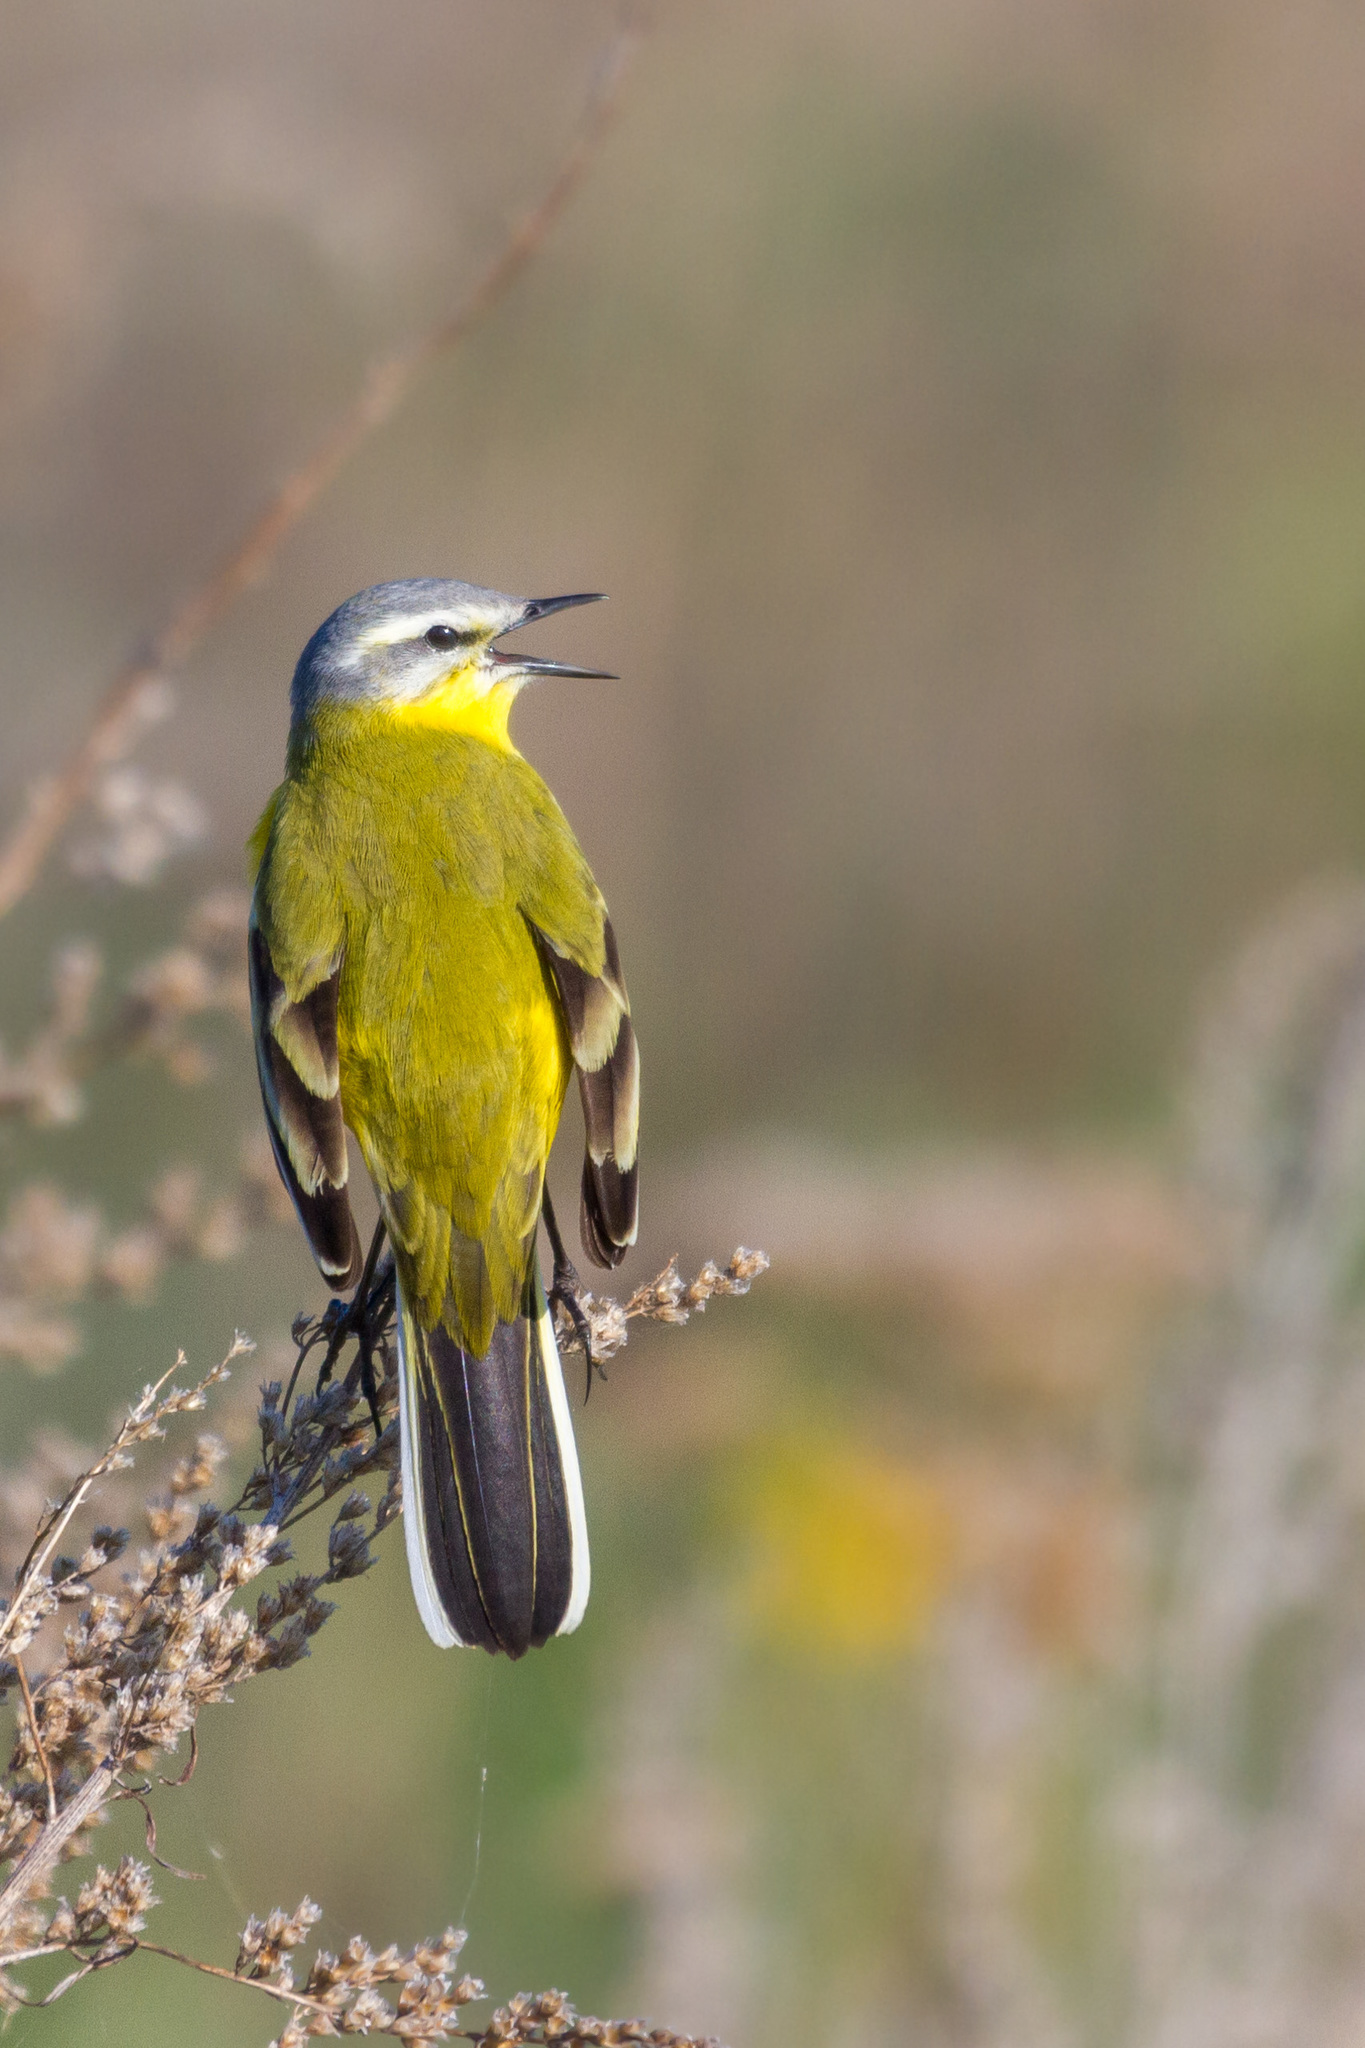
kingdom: Animalia
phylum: Chordata
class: Aves
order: Passeriformes
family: Motacillidae
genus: Motacilla
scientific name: Motacilla flava
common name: Western yellow wagtail
